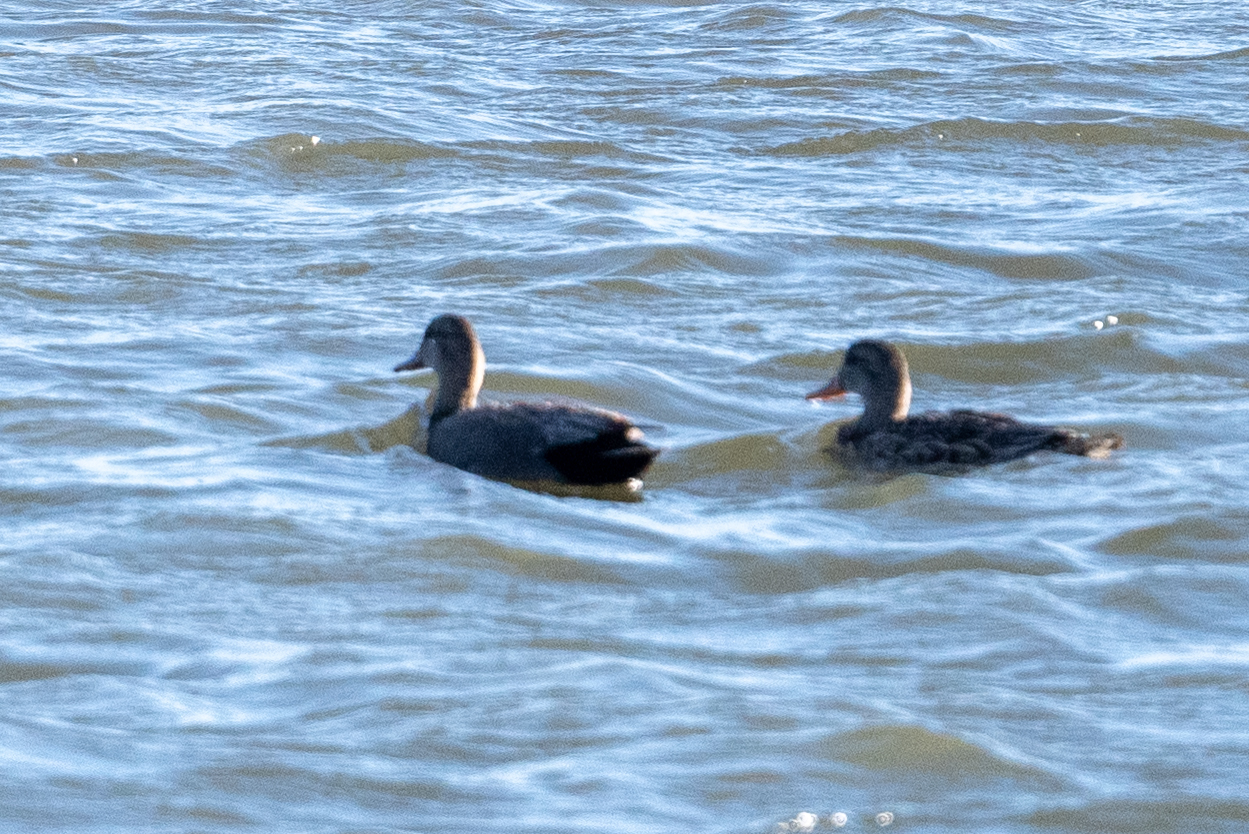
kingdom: Animalia
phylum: Chordata
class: Aves
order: Anseriformes
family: Anatidae
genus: Mareca
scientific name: Mareca strepera
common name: Gadwall
